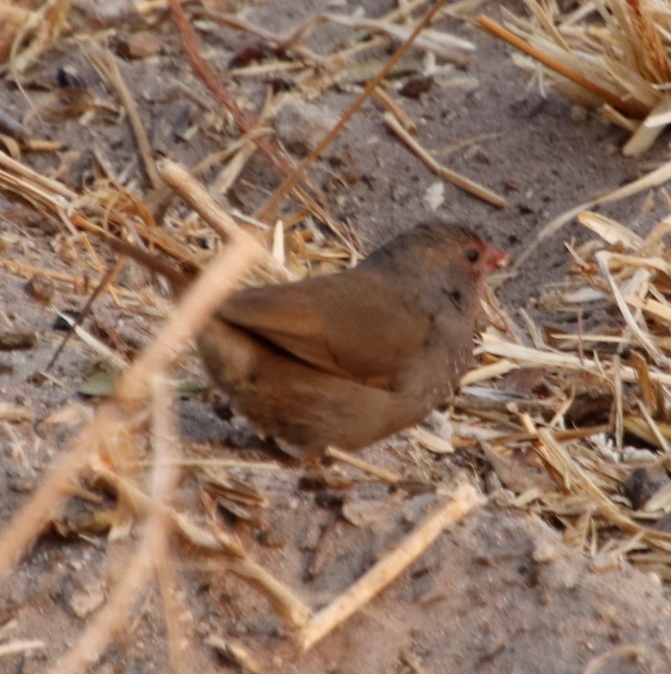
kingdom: Animalia
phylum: Chordata
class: Aves
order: Passeriformes
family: Estrildidae
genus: Lagonosticta
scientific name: Lagonosticta nitidula
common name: Brown firefinch
